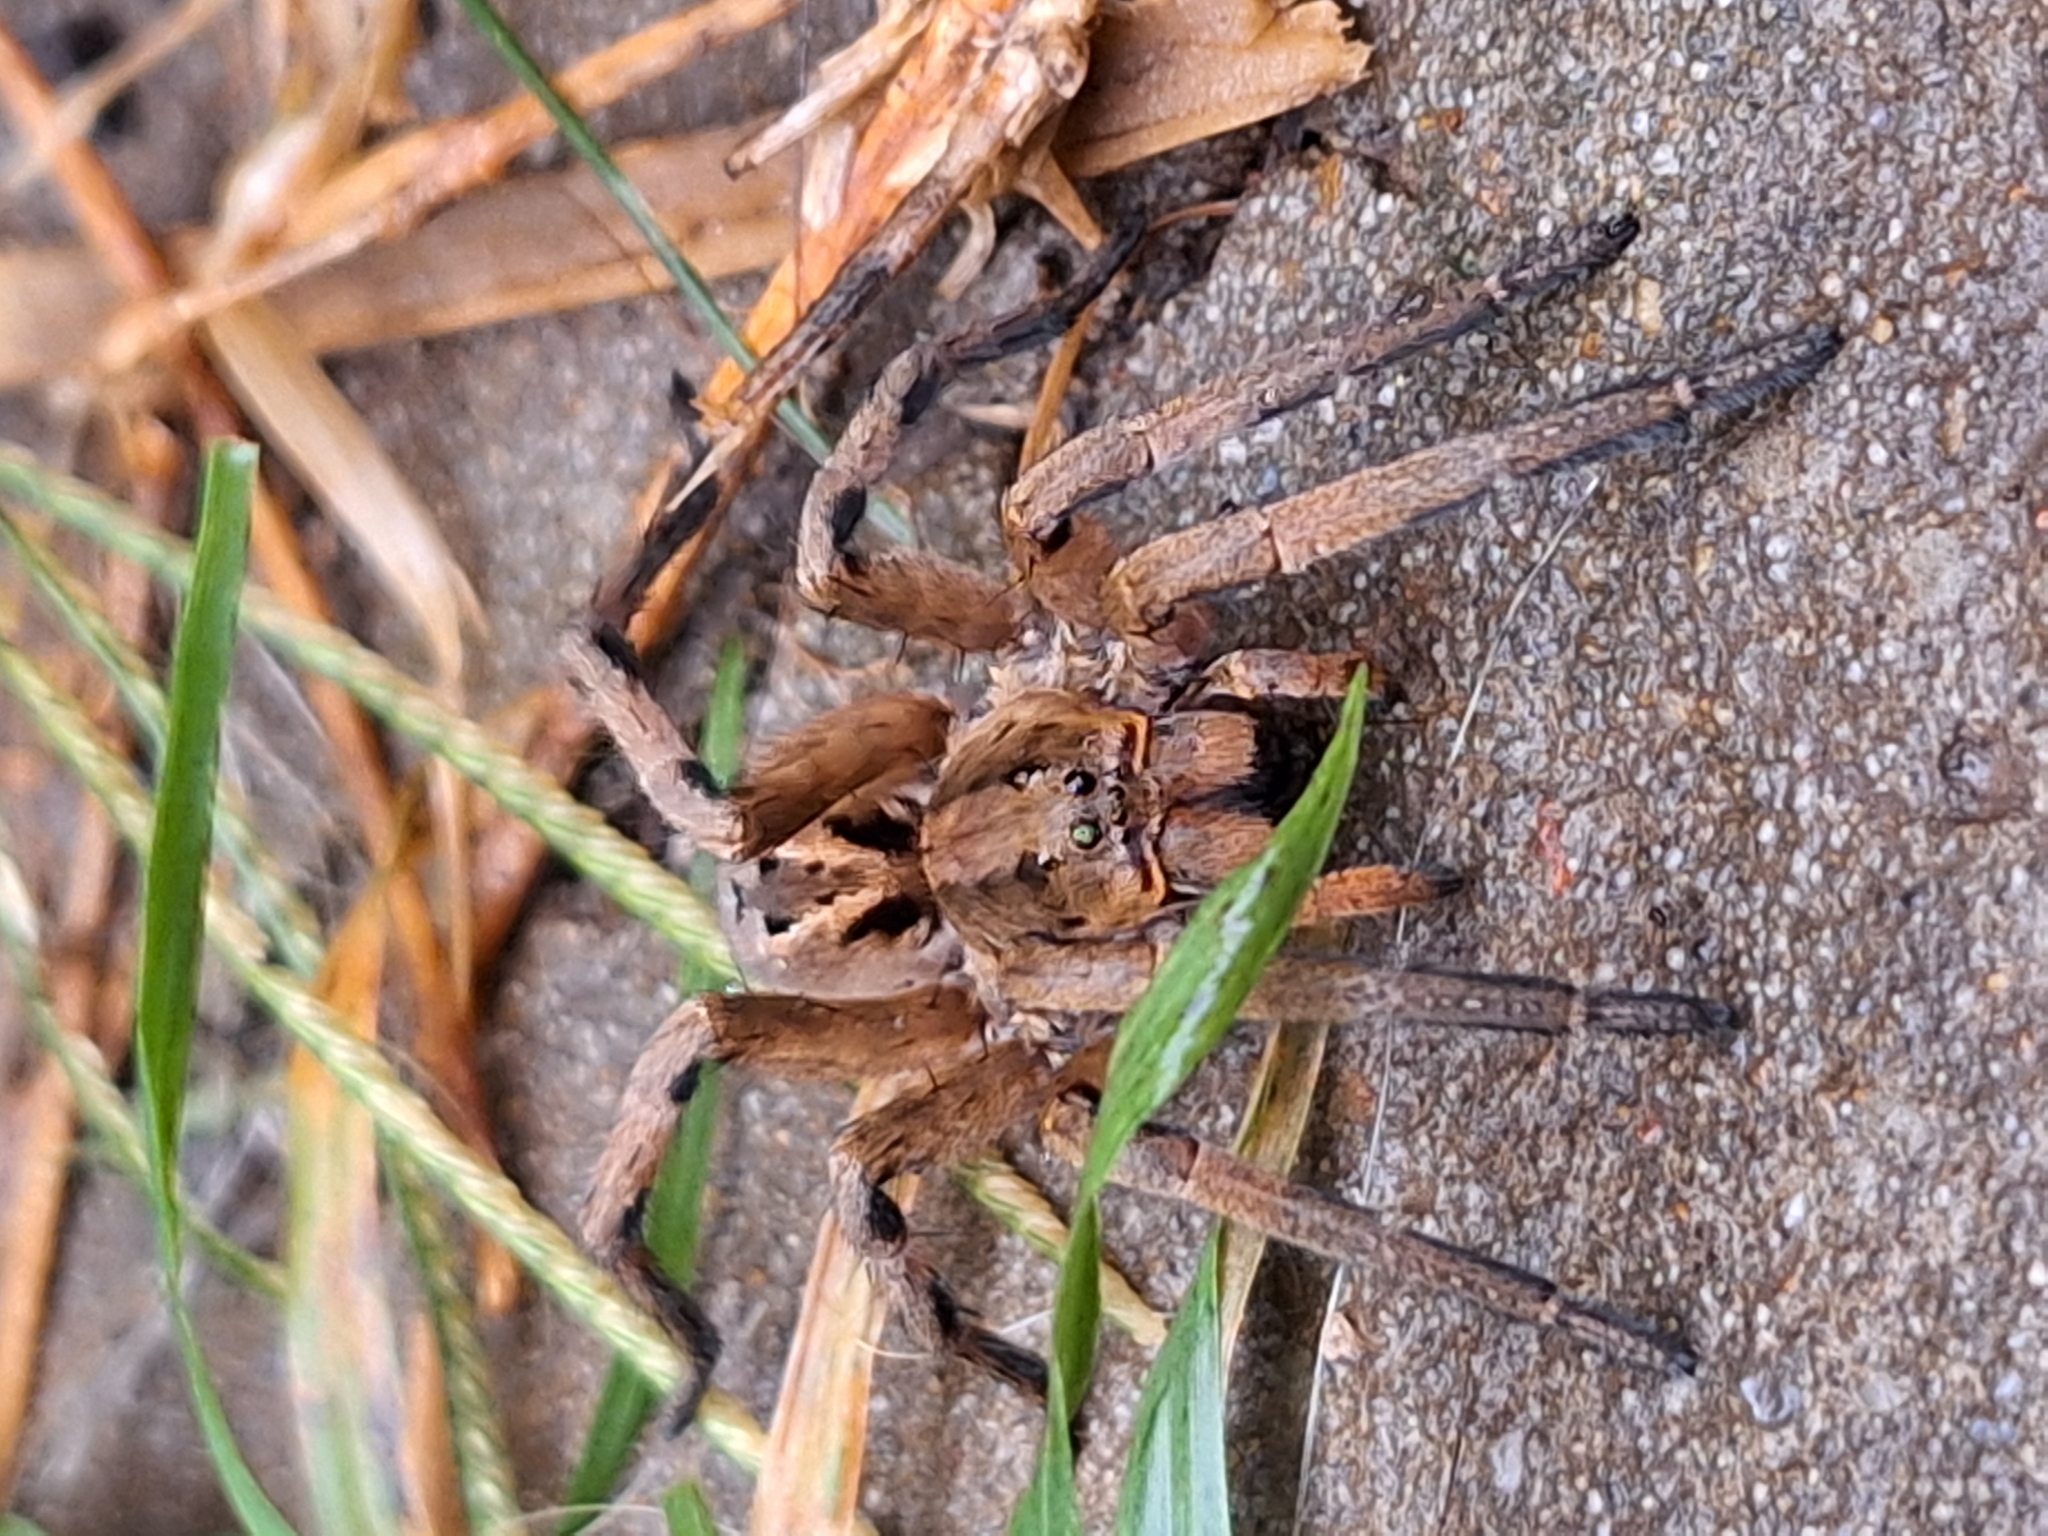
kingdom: Animalia
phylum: Arthropoda
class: Arachnida
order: Araneae
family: Lycosidae
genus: Lycosa
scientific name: Lycosa erythrognatha
